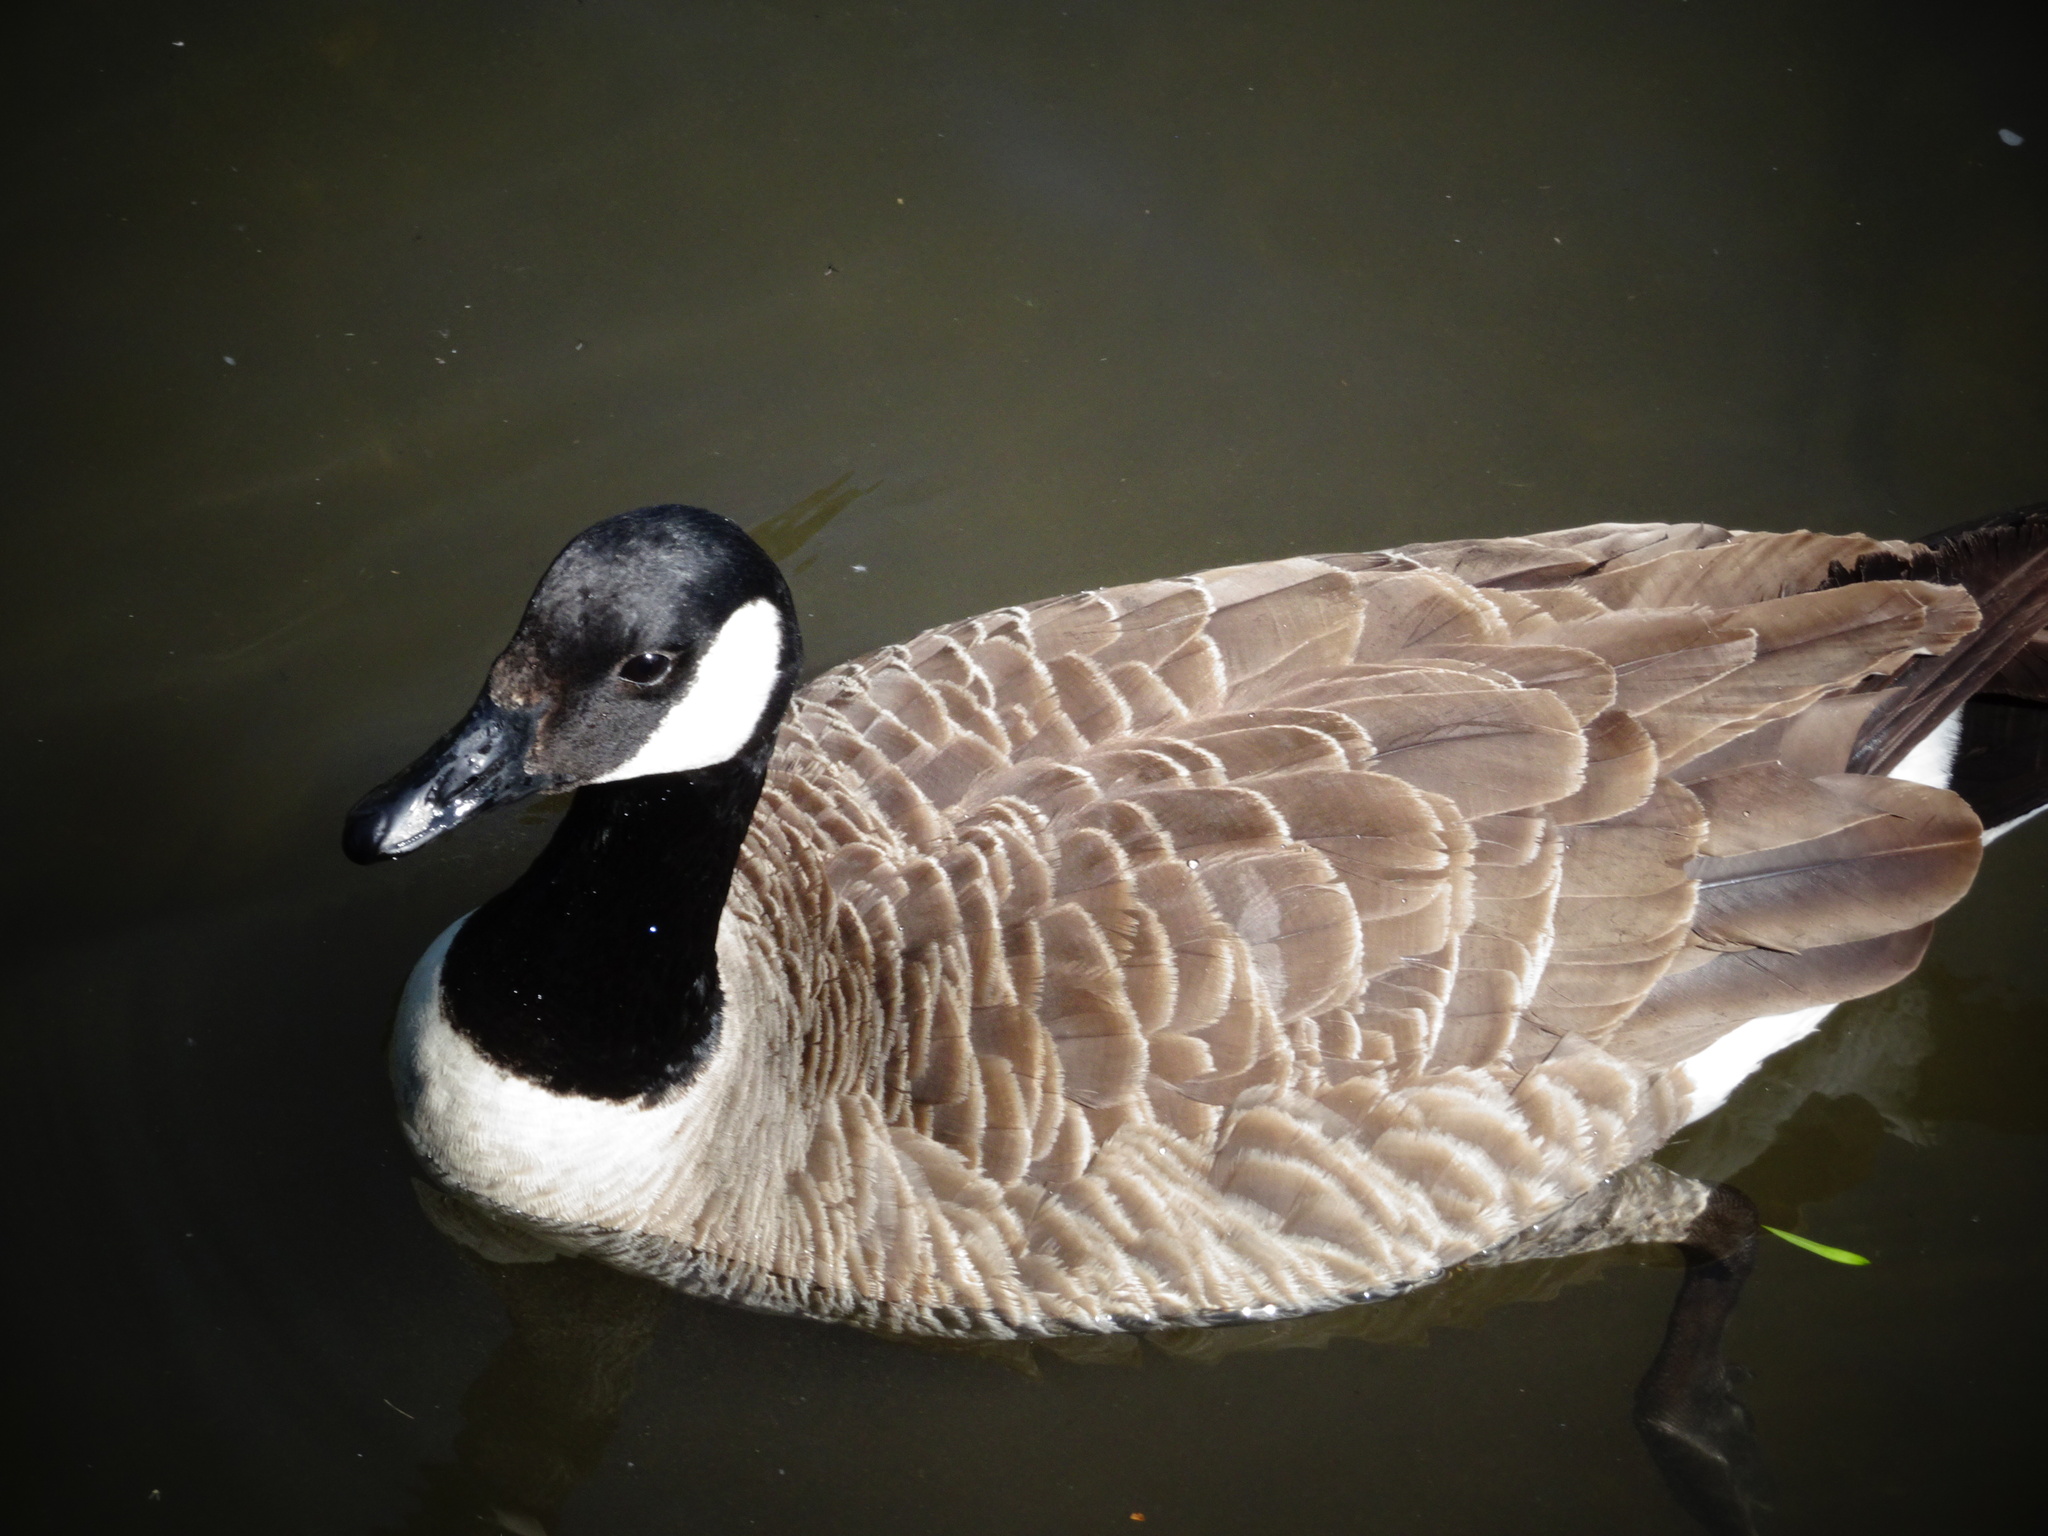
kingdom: Animalia
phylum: Chordata
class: Aves
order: Anseriformes
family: Anatidae
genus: Branta
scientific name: Branta canadensis
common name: Canada goose
